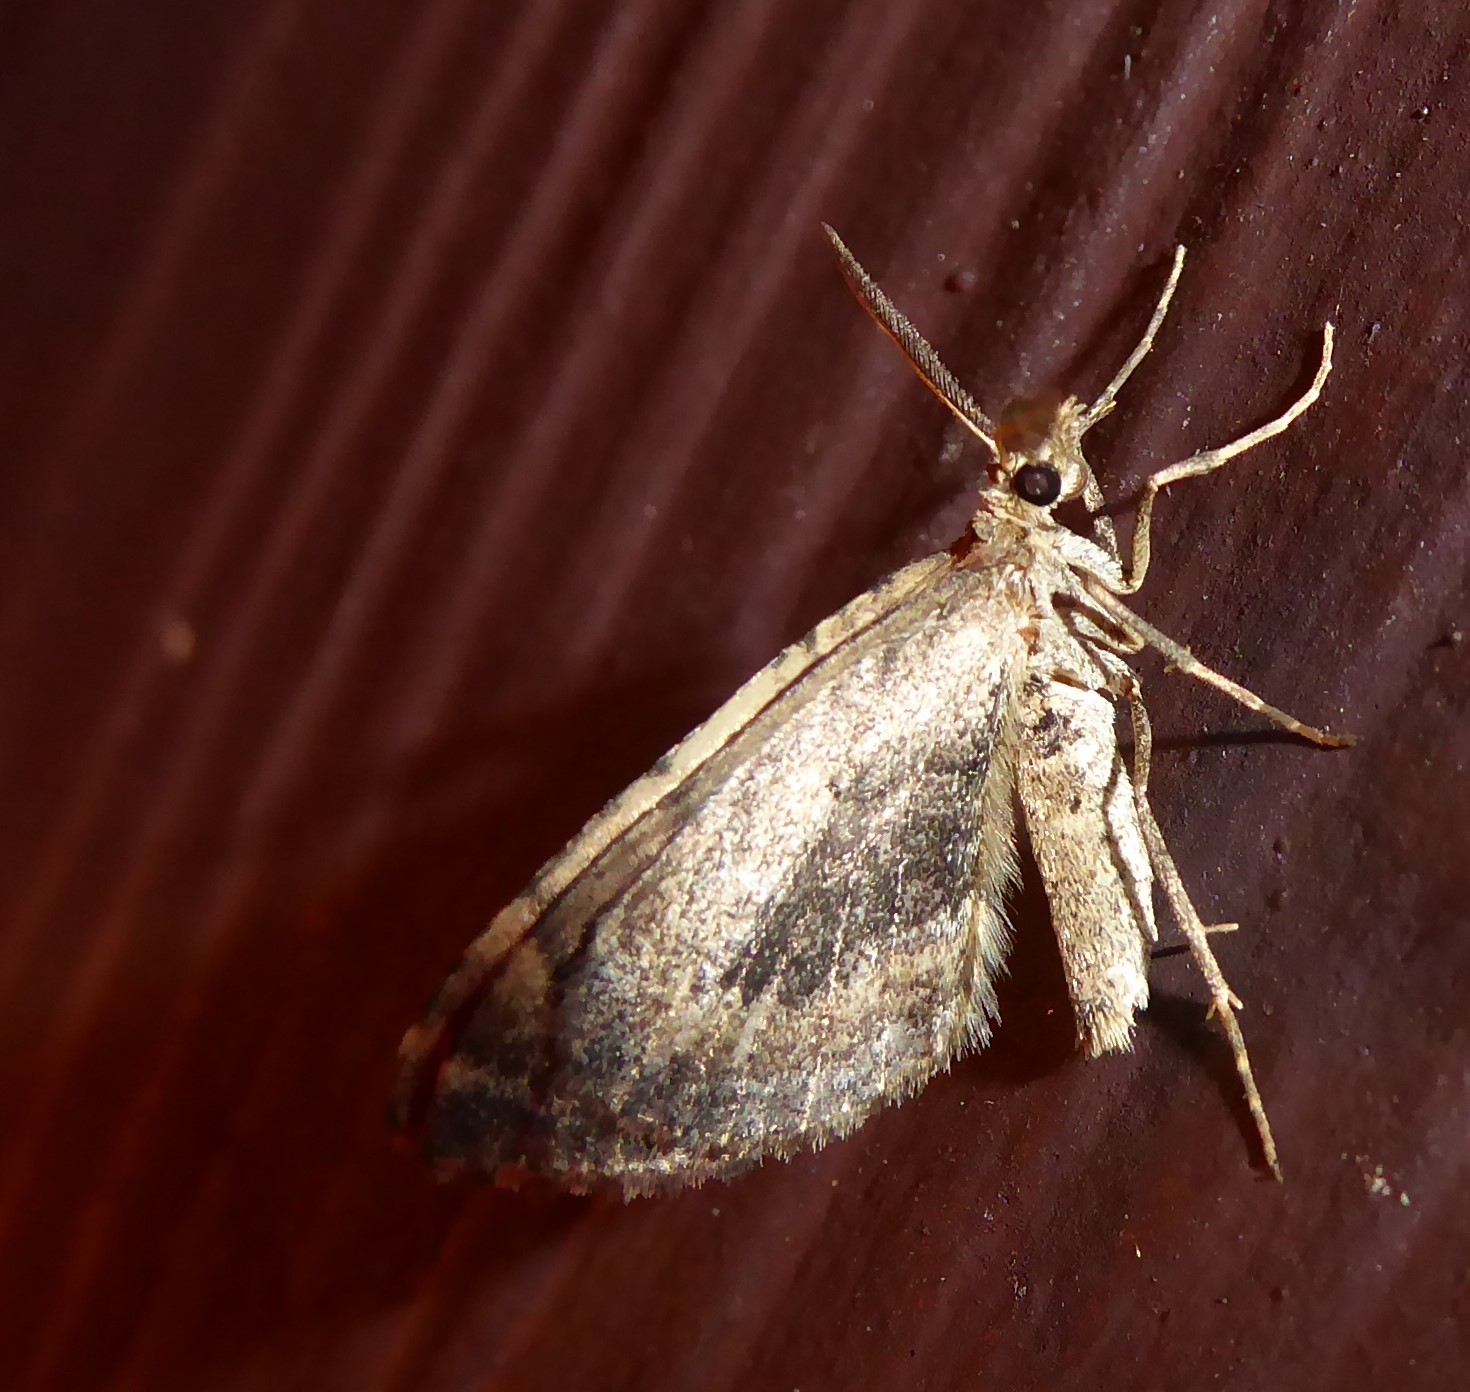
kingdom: Animalia
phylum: Arthropoda
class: Insecta
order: Lepidoptera
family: Geometridae
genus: Asaphodes
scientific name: Asaphodes aegrota
